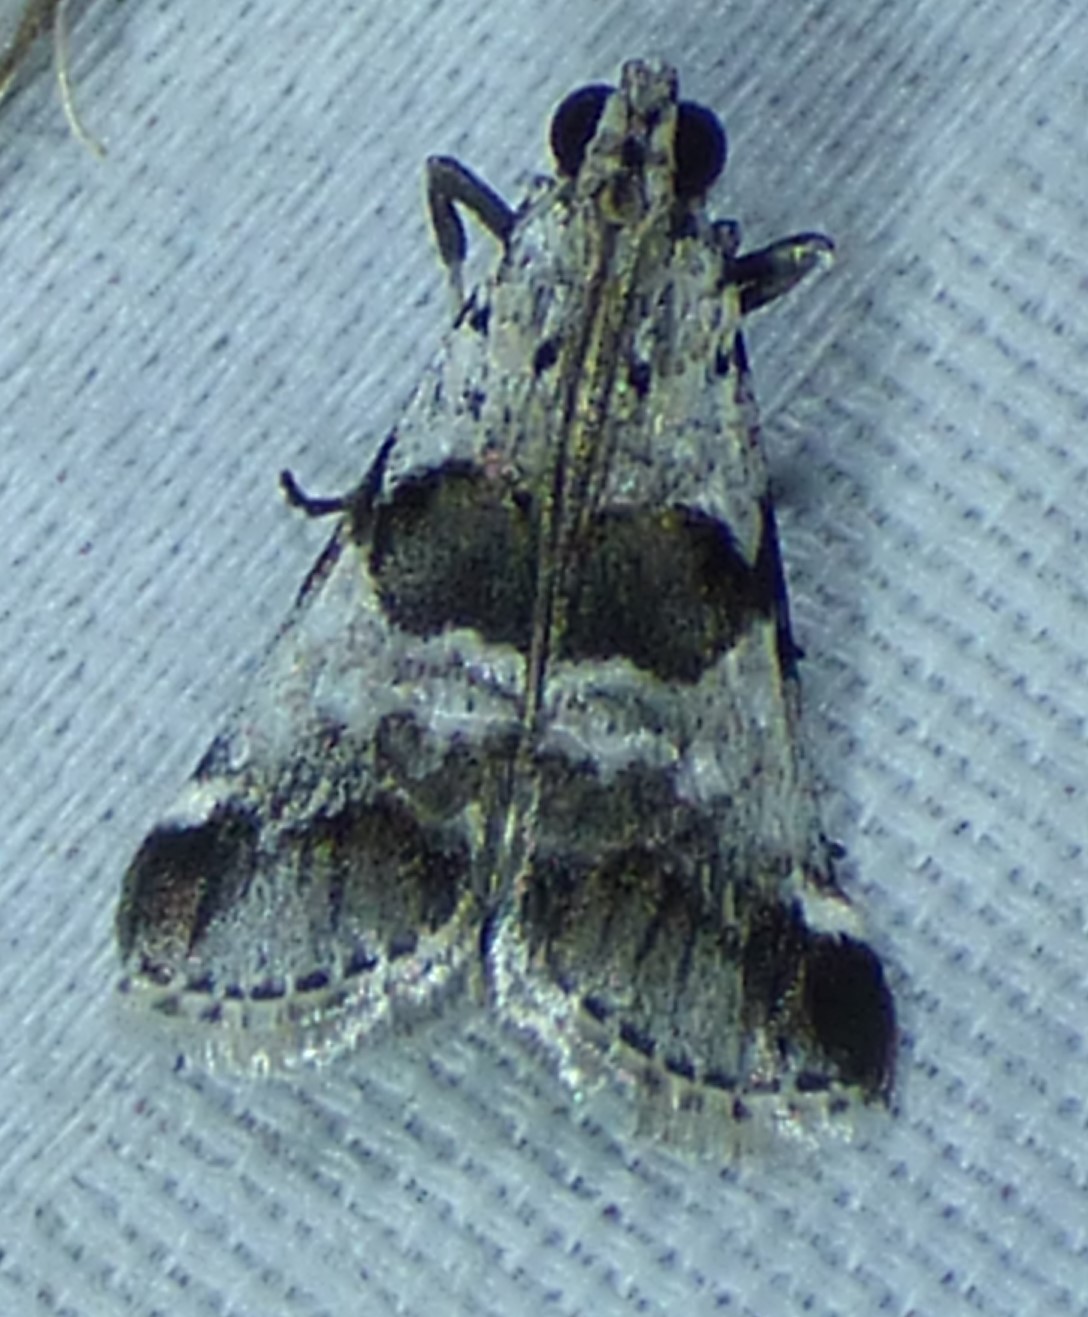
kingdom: Animalia
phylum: Arthropoda
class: Insecta
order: Lepidoptera
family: Pyralidae
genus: Tallula
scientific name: Tallula atrifascialis
